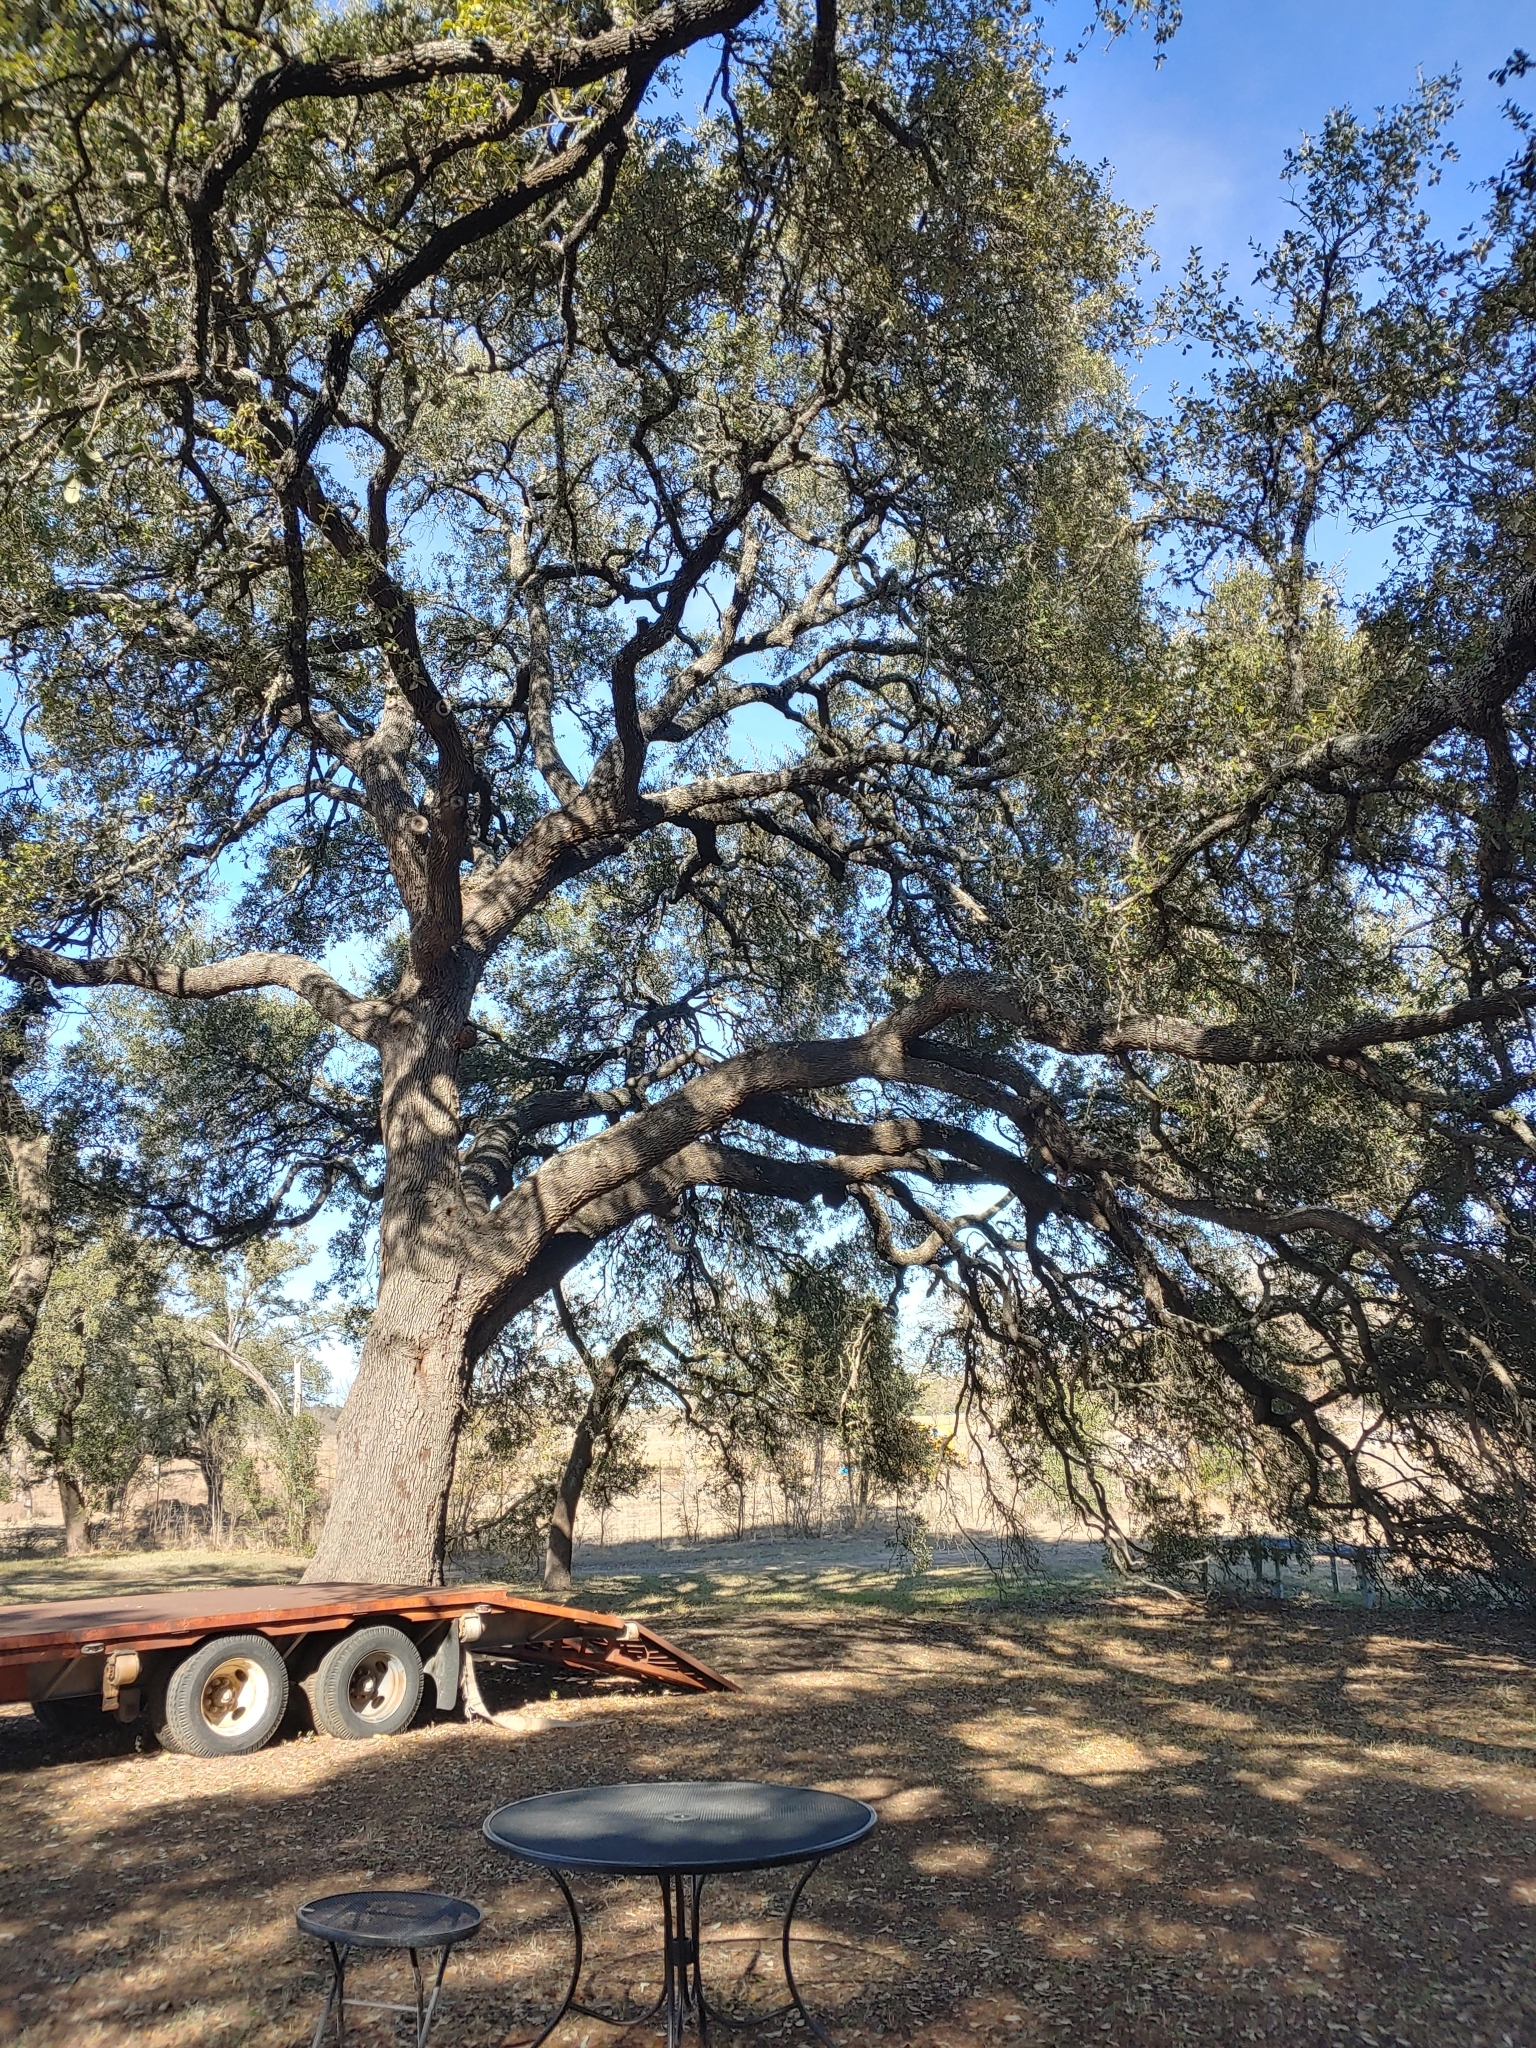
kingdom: Plantae
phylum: Tracheophyta
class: Magnoliopsida
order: Fagales
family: Fagaceae
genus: Quercus
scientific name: Quercus fusiformis
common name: Texas live oak
